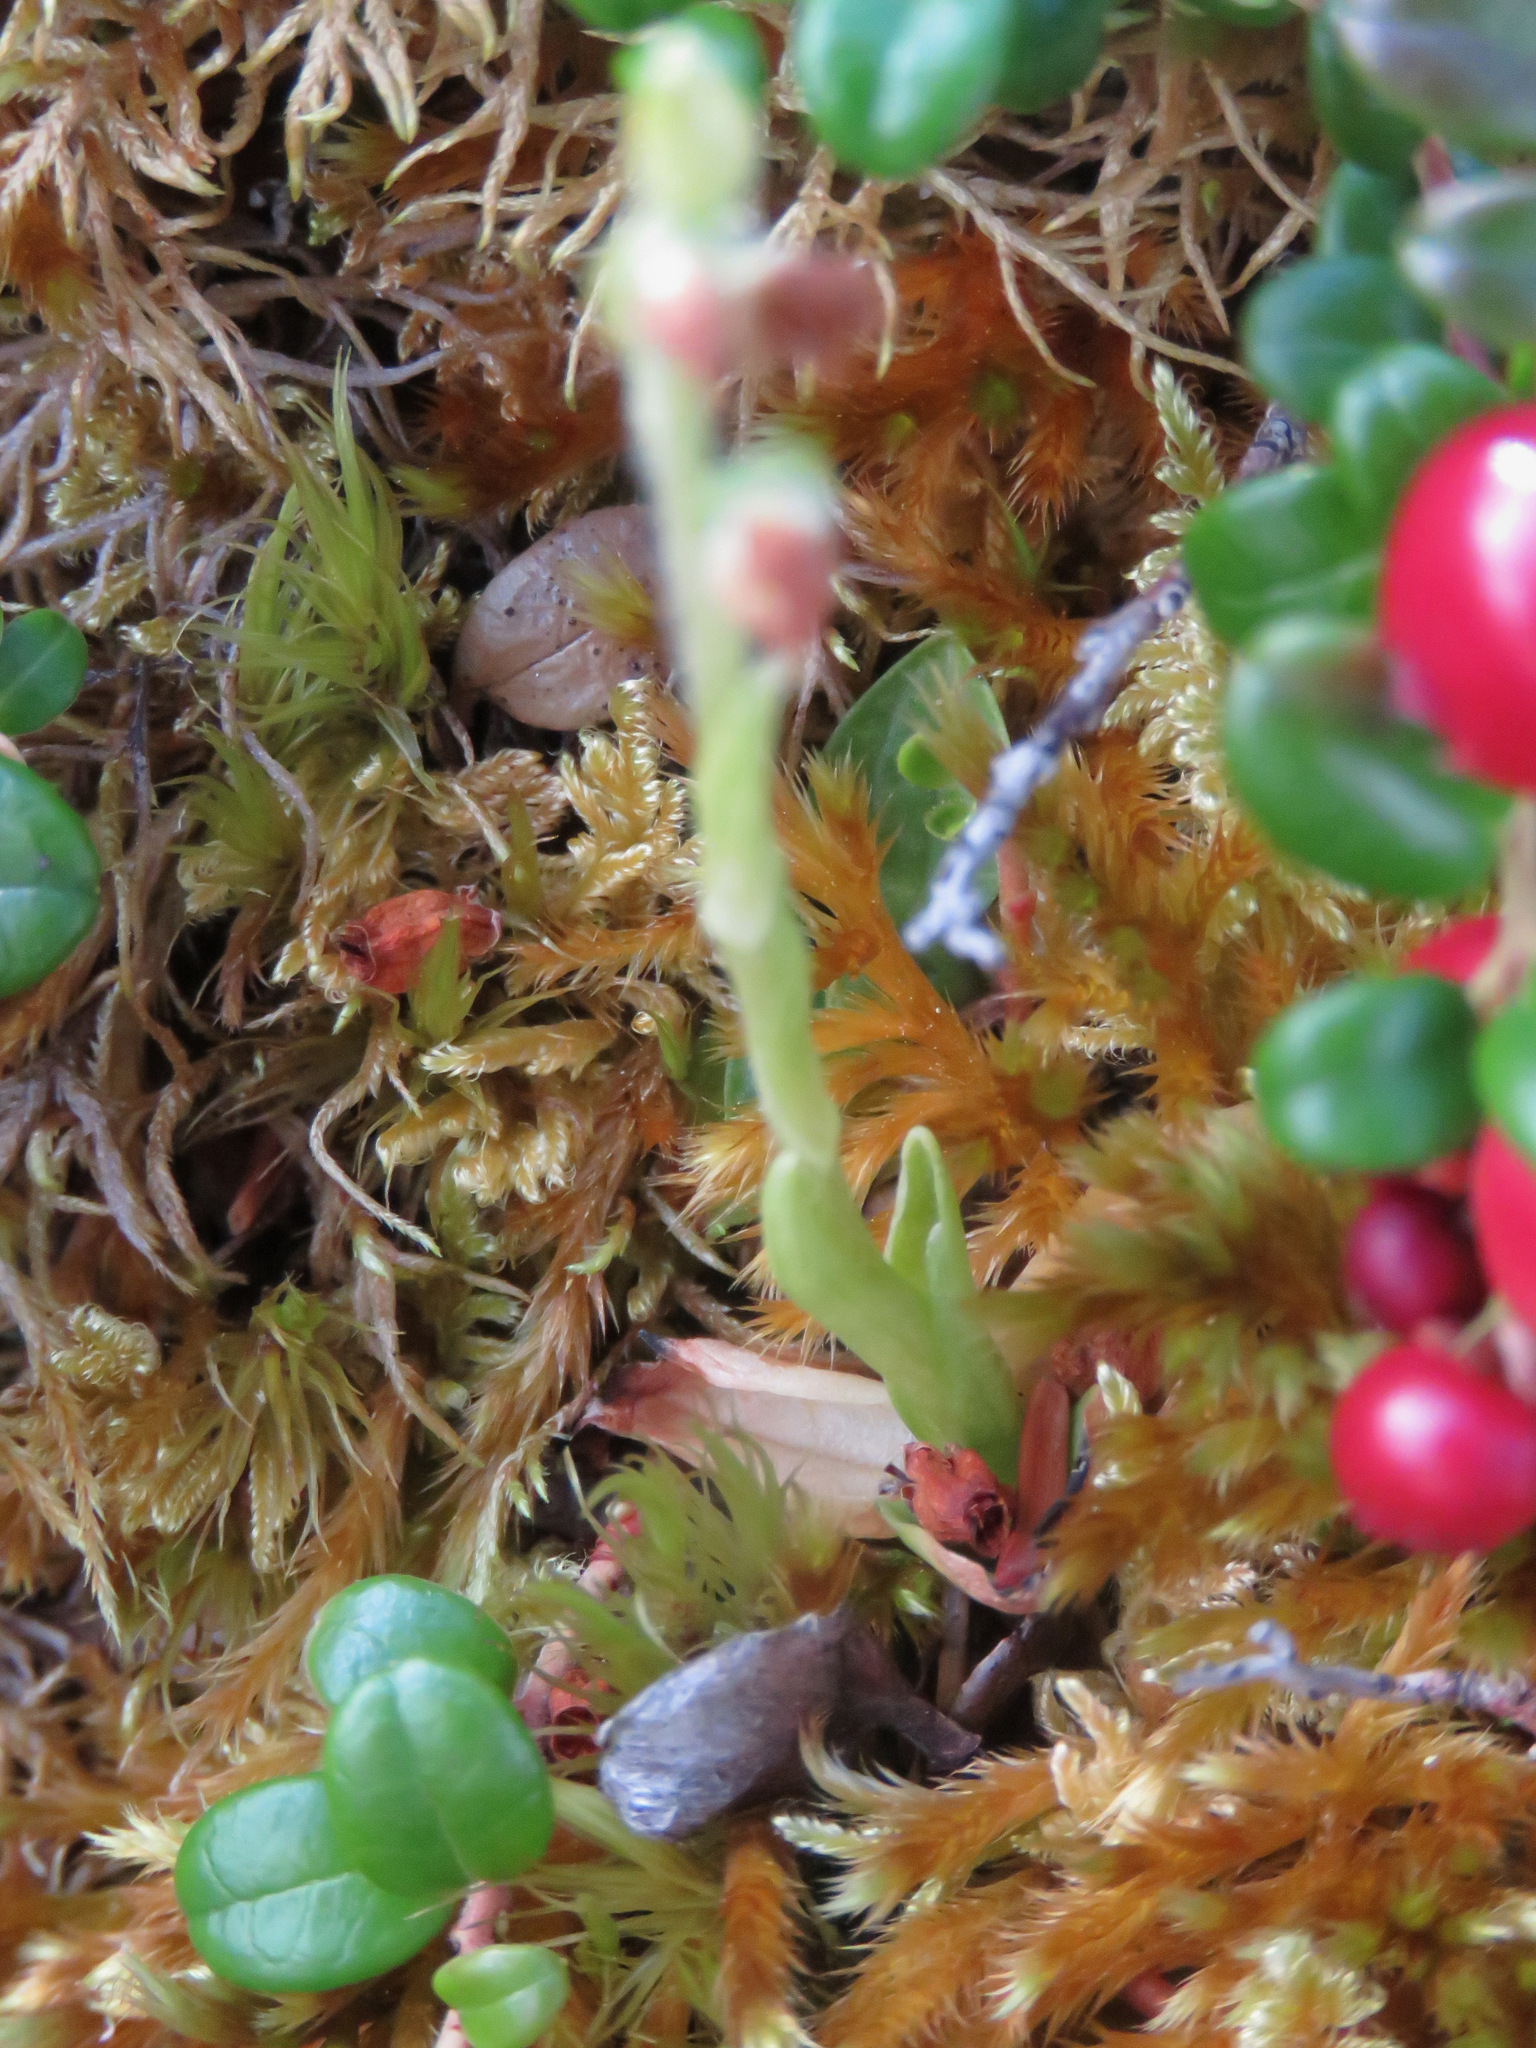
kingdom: Plantae
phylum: Tracheophyta
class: Liliopsida
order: Asparagales
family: Orchidaceae
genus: Goodyera
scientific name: Goodyera repens
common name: Creeping lady's-tresses
